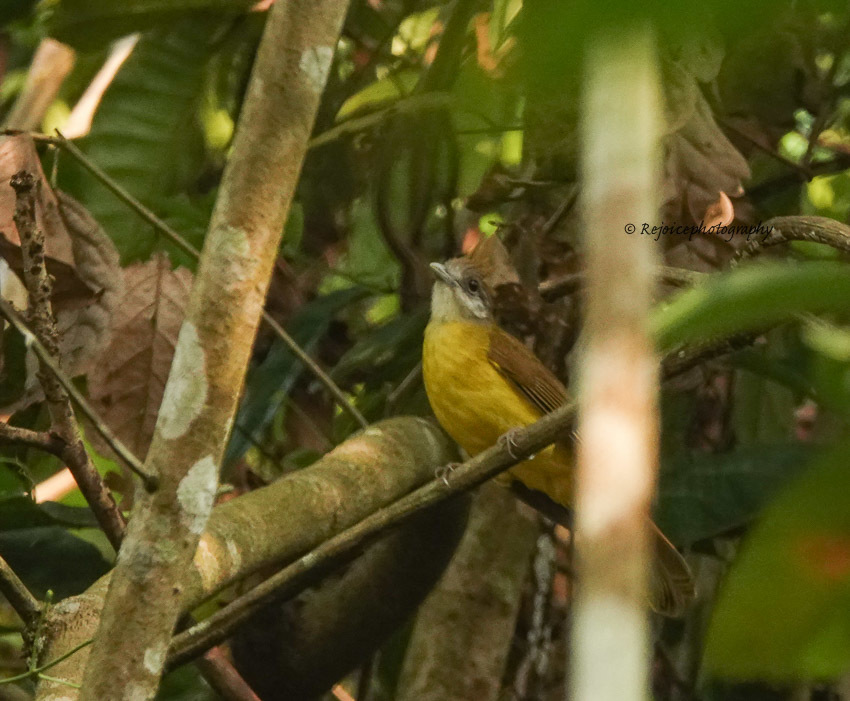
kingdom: Animalia
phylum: Chordata
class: Aves
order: Passeriformes
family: Pycnonotidae
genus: Alophoixus
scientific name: Alophoixus flaveolus
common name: White-throated bulbul
